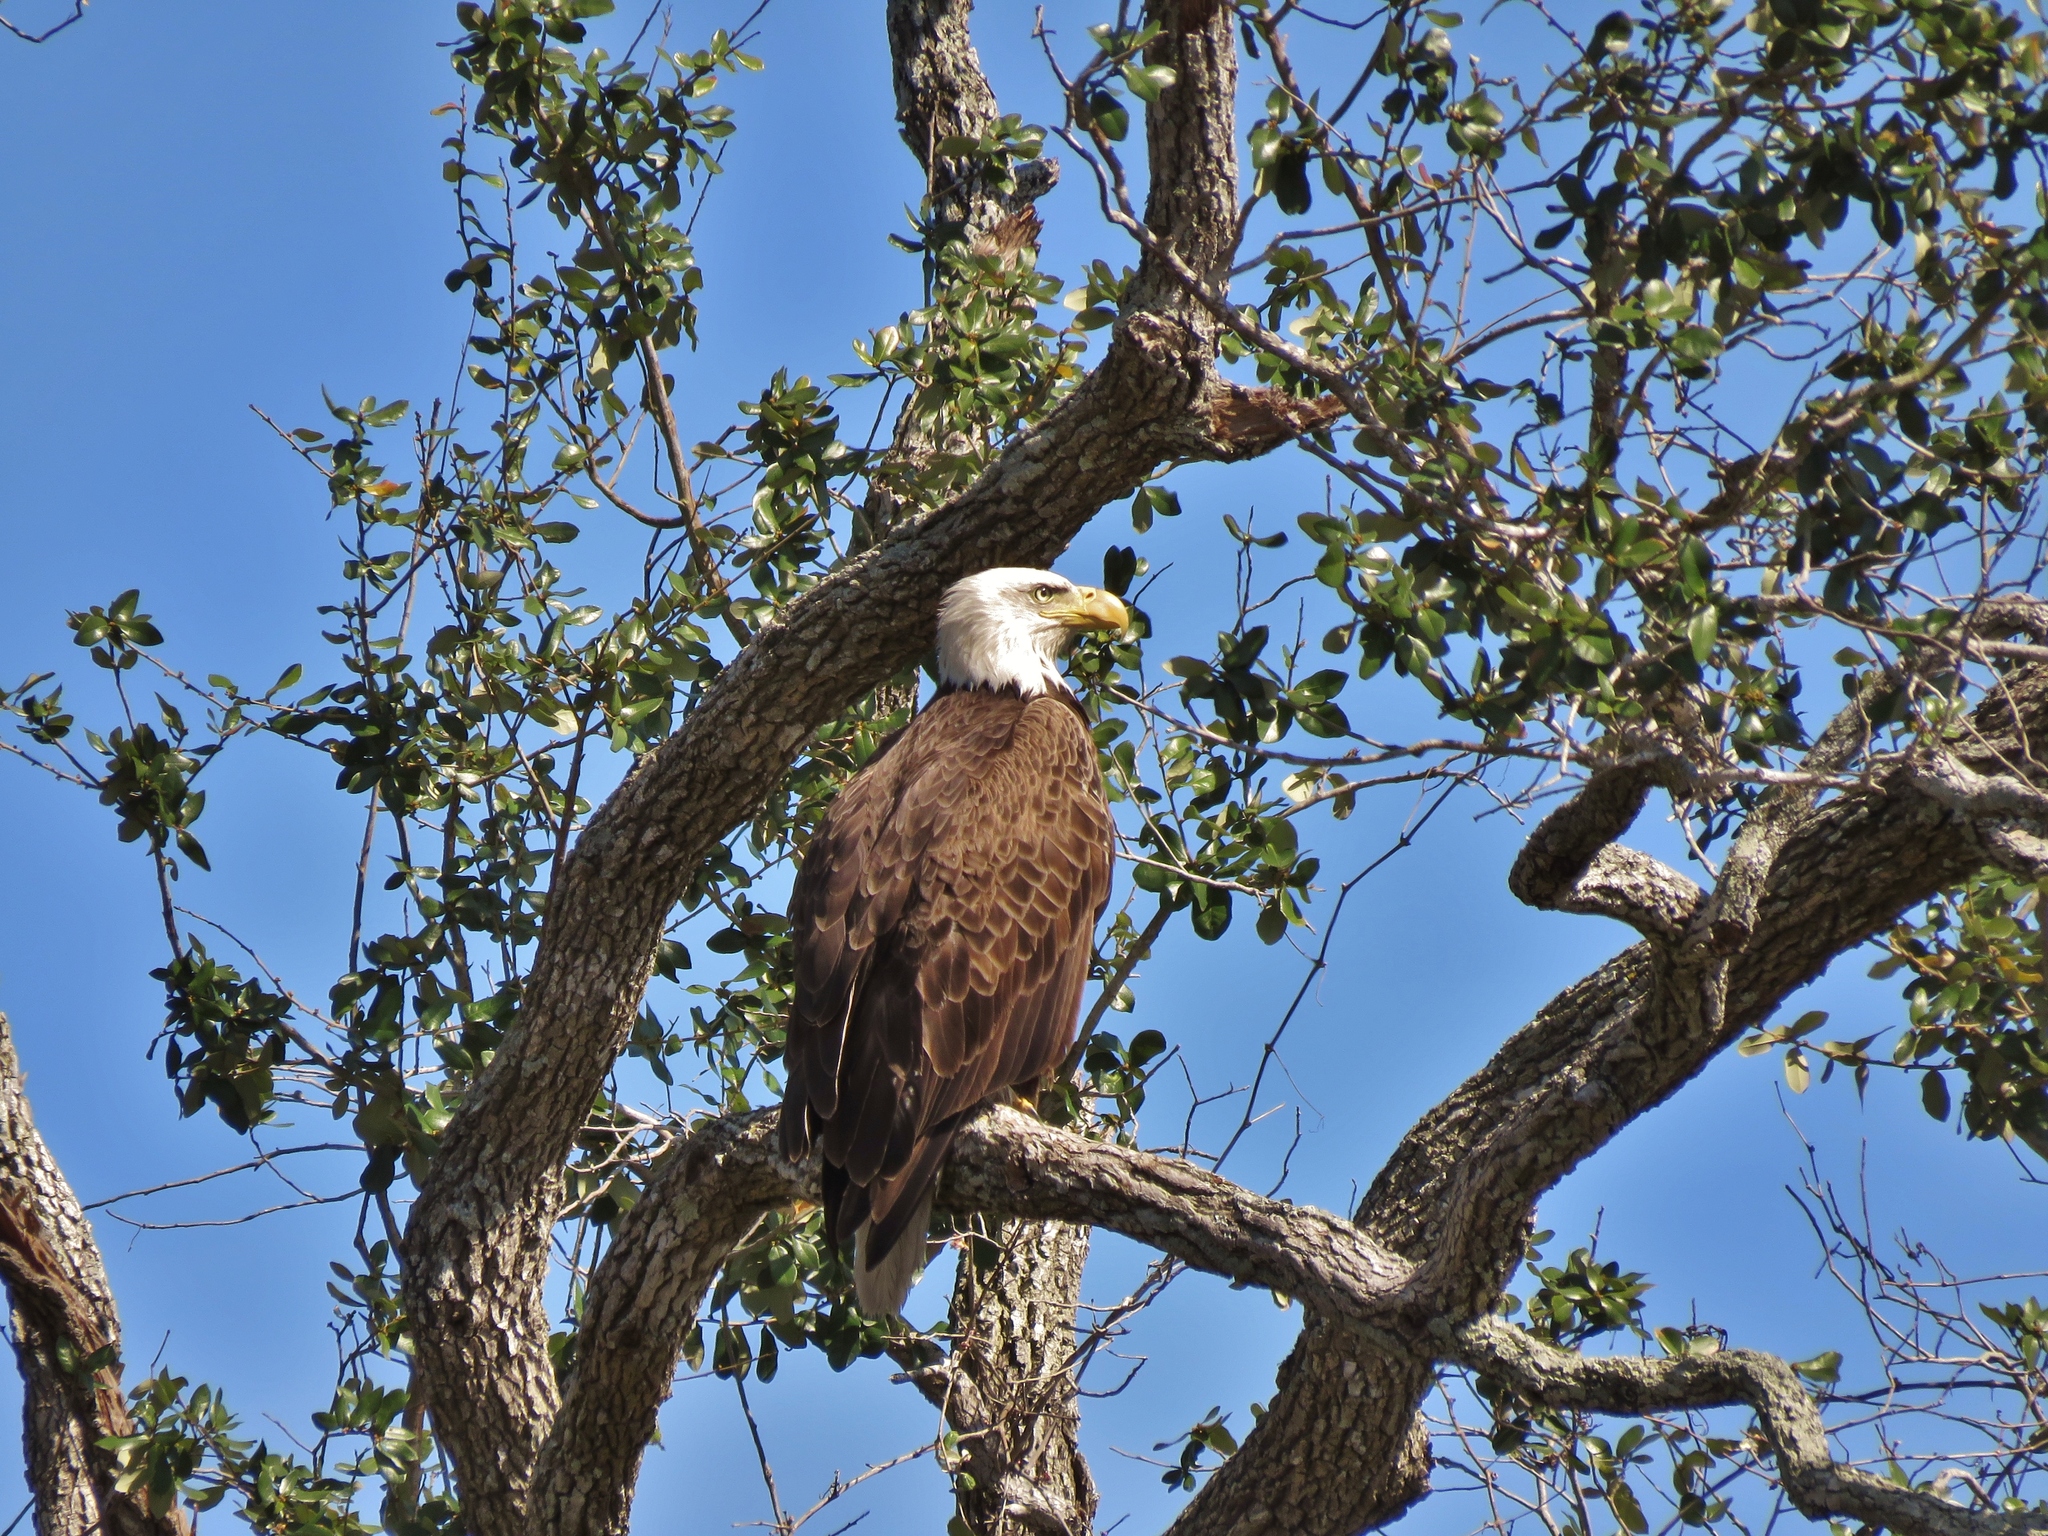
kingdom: Animalia
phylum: Chordata
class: Aves
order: Accipitriformes
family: Accipitridae
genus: Haliaeetus
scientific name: Haliaeetus leucocephalus
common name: Bald eagle
